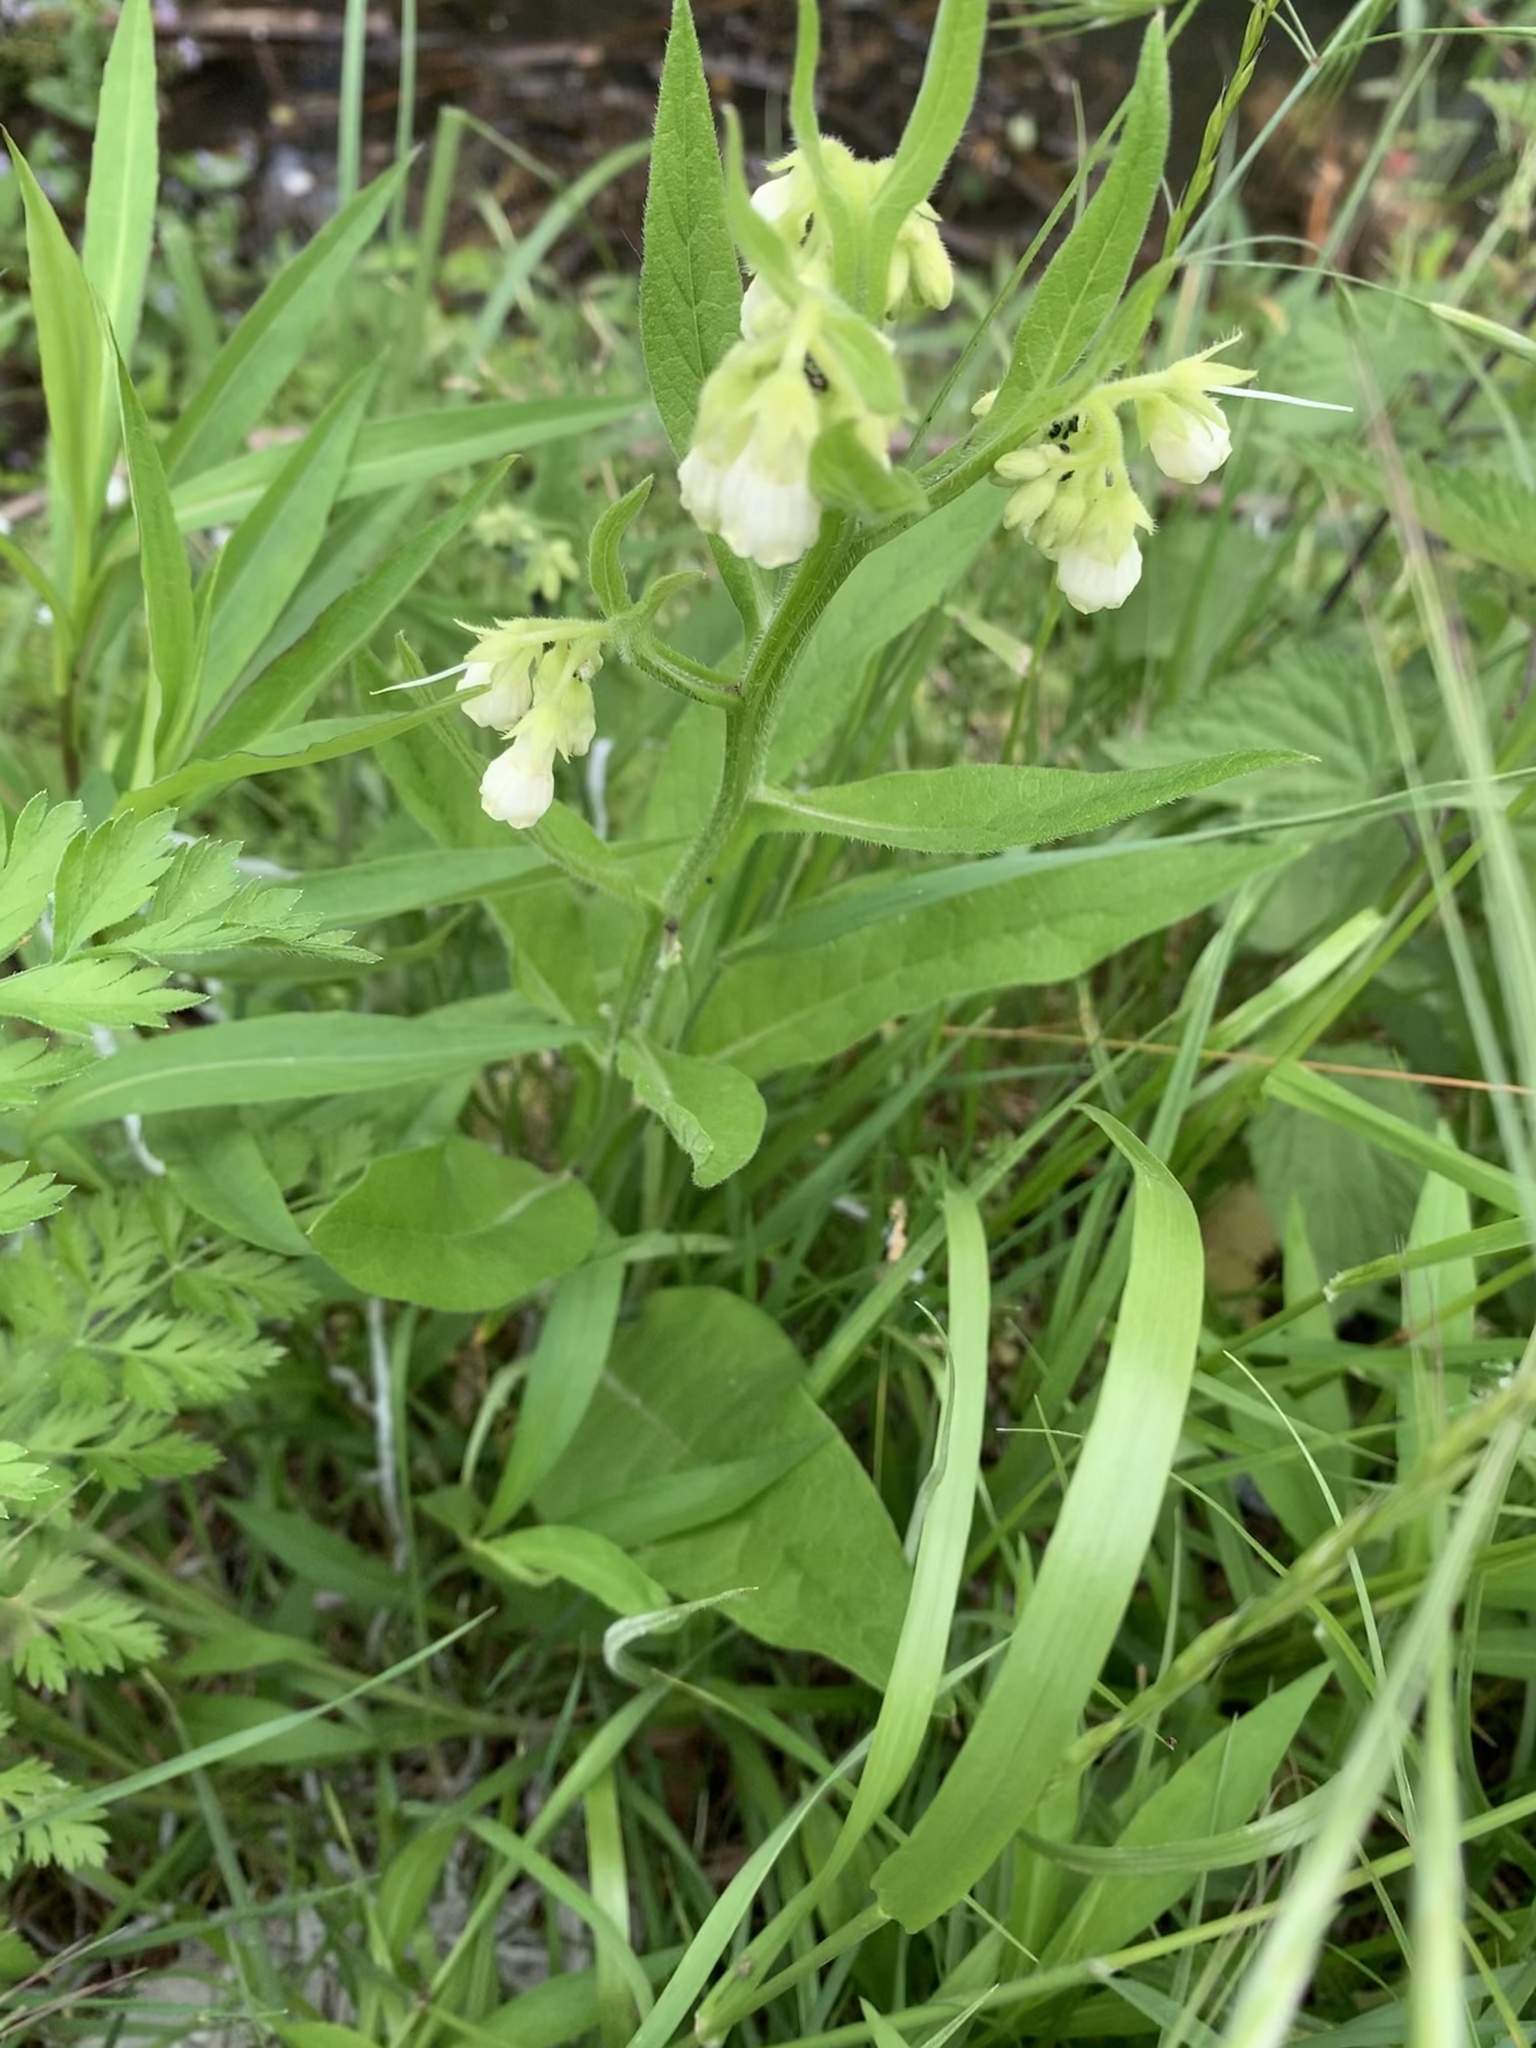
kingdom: Plantae
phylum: Tracheophyta
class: Magnoliopsida
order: Boraginales
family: Boraginaceae
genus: Symphytum
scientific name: Symphytum officinale
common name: Common comfrey
